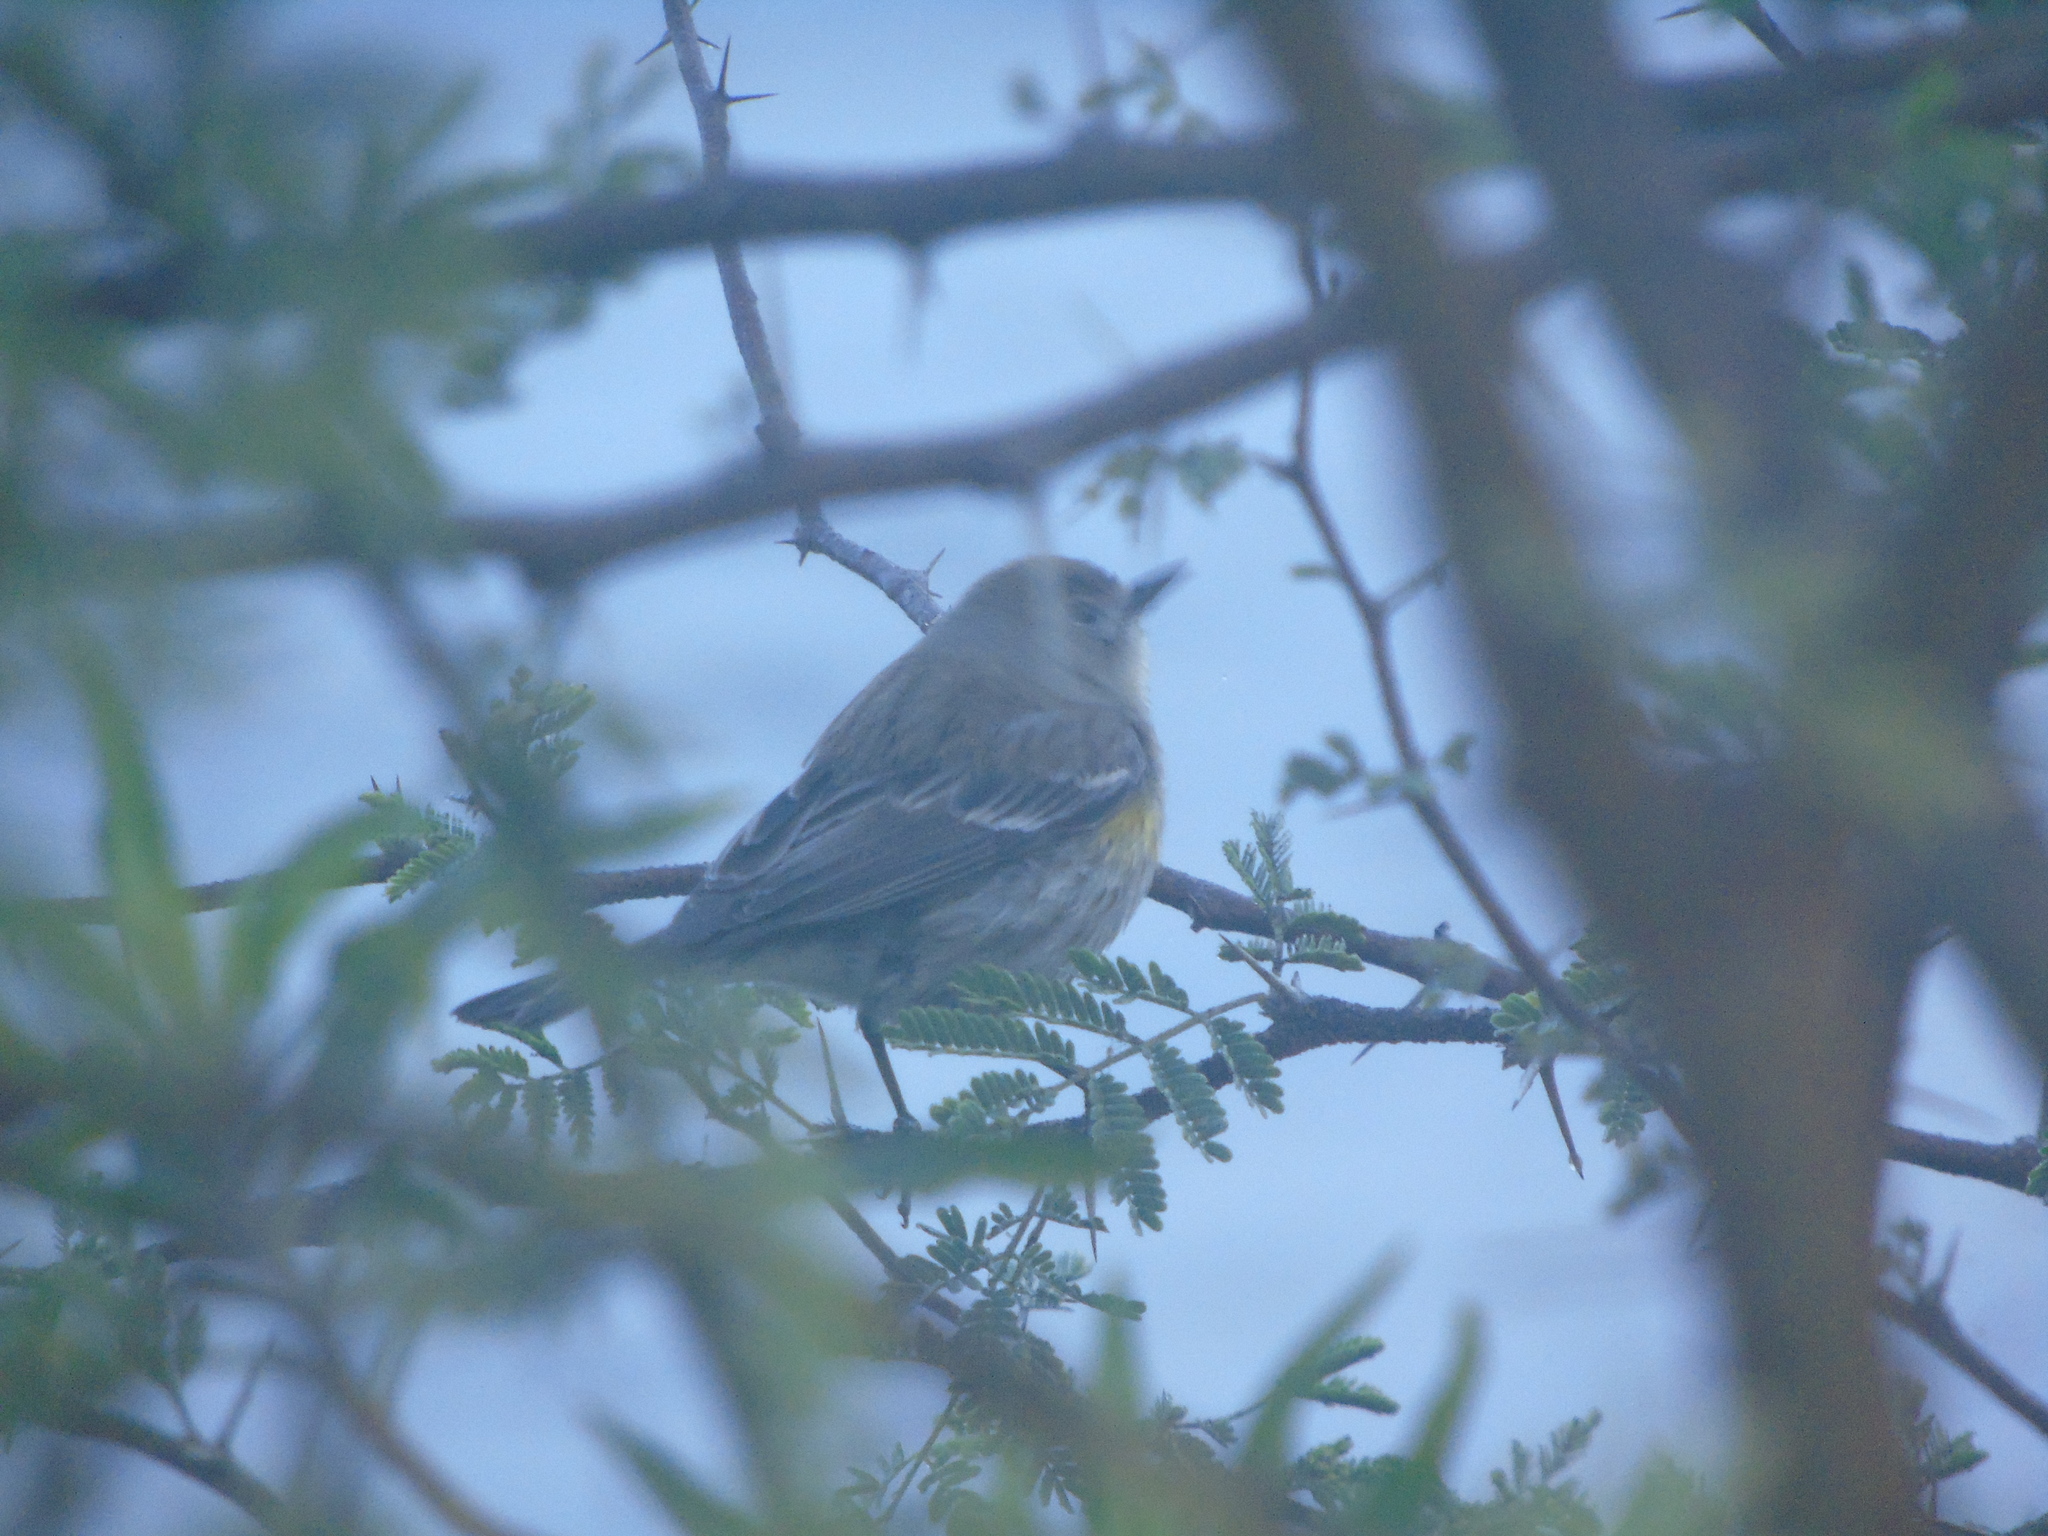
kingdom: Animalia
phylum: Chordata
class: Aves
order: Passeriformes
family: Parulidae
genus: Setophaga
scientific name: Setophaga auduboni
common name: Audubon's warbler
